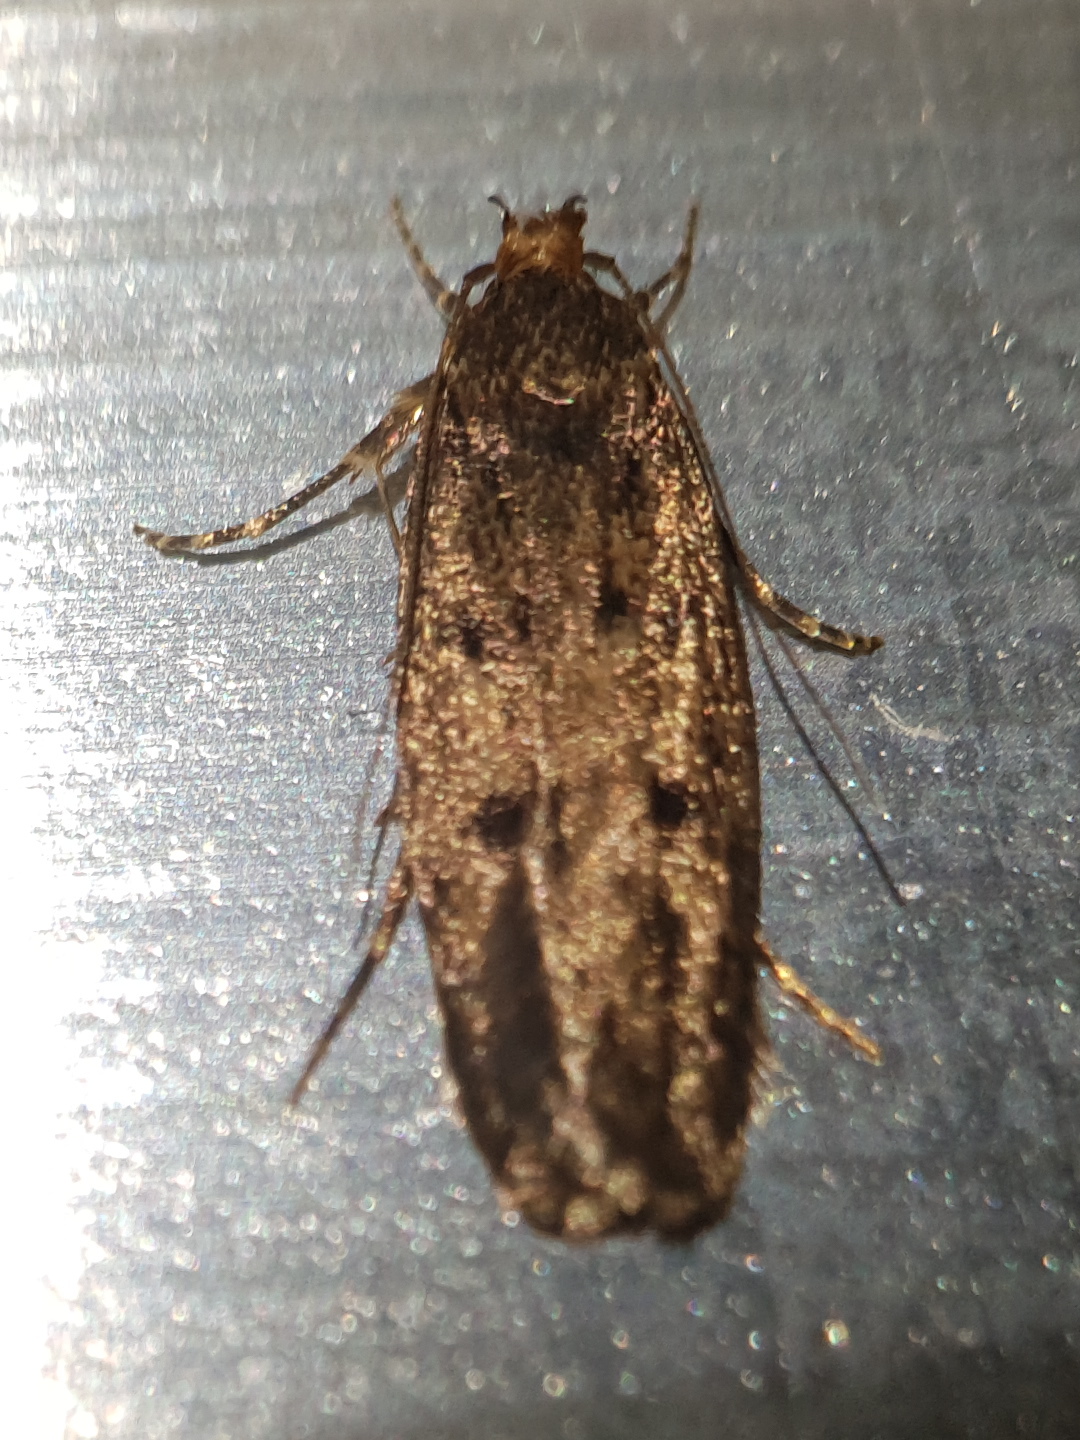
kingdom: Animalia
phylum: Arthropoda
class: Insecta
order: Lepidoptera
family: Oecophoridae
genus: Hofmannophila
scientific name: Hofmannophila pseudospretella
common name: Brown house moth
